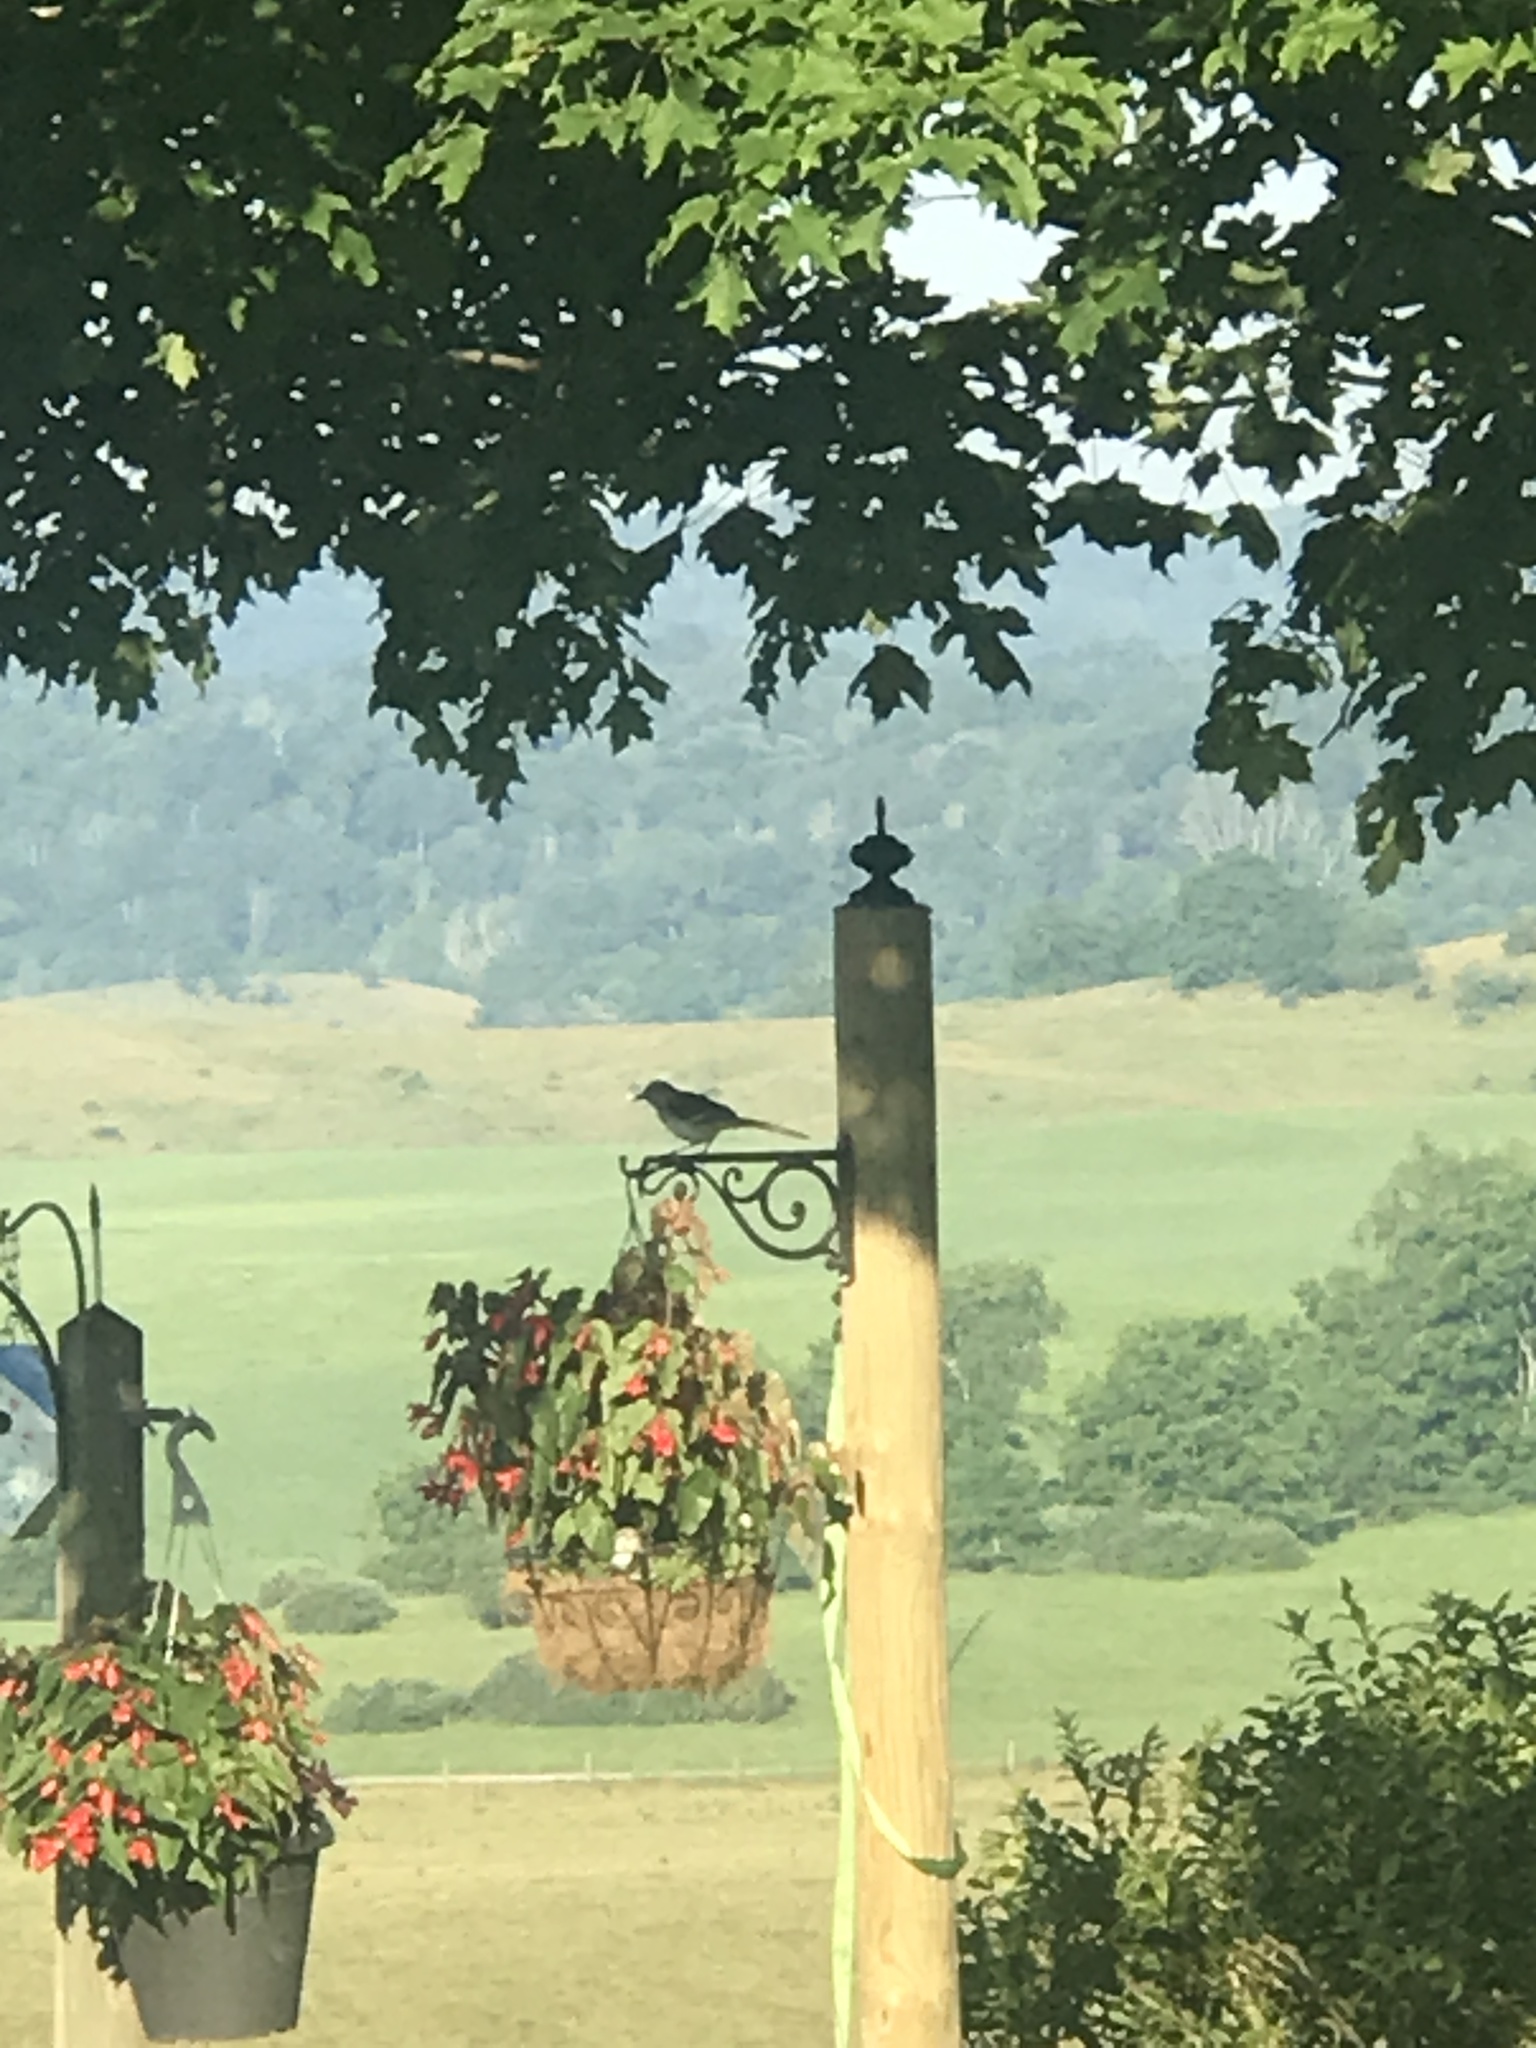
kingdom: Animalia
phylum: Chordata
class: Aves
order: Passeriformes
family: Mimidae
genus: Mimus
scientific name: Mimus polyglottos
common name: Northern mockingbird
